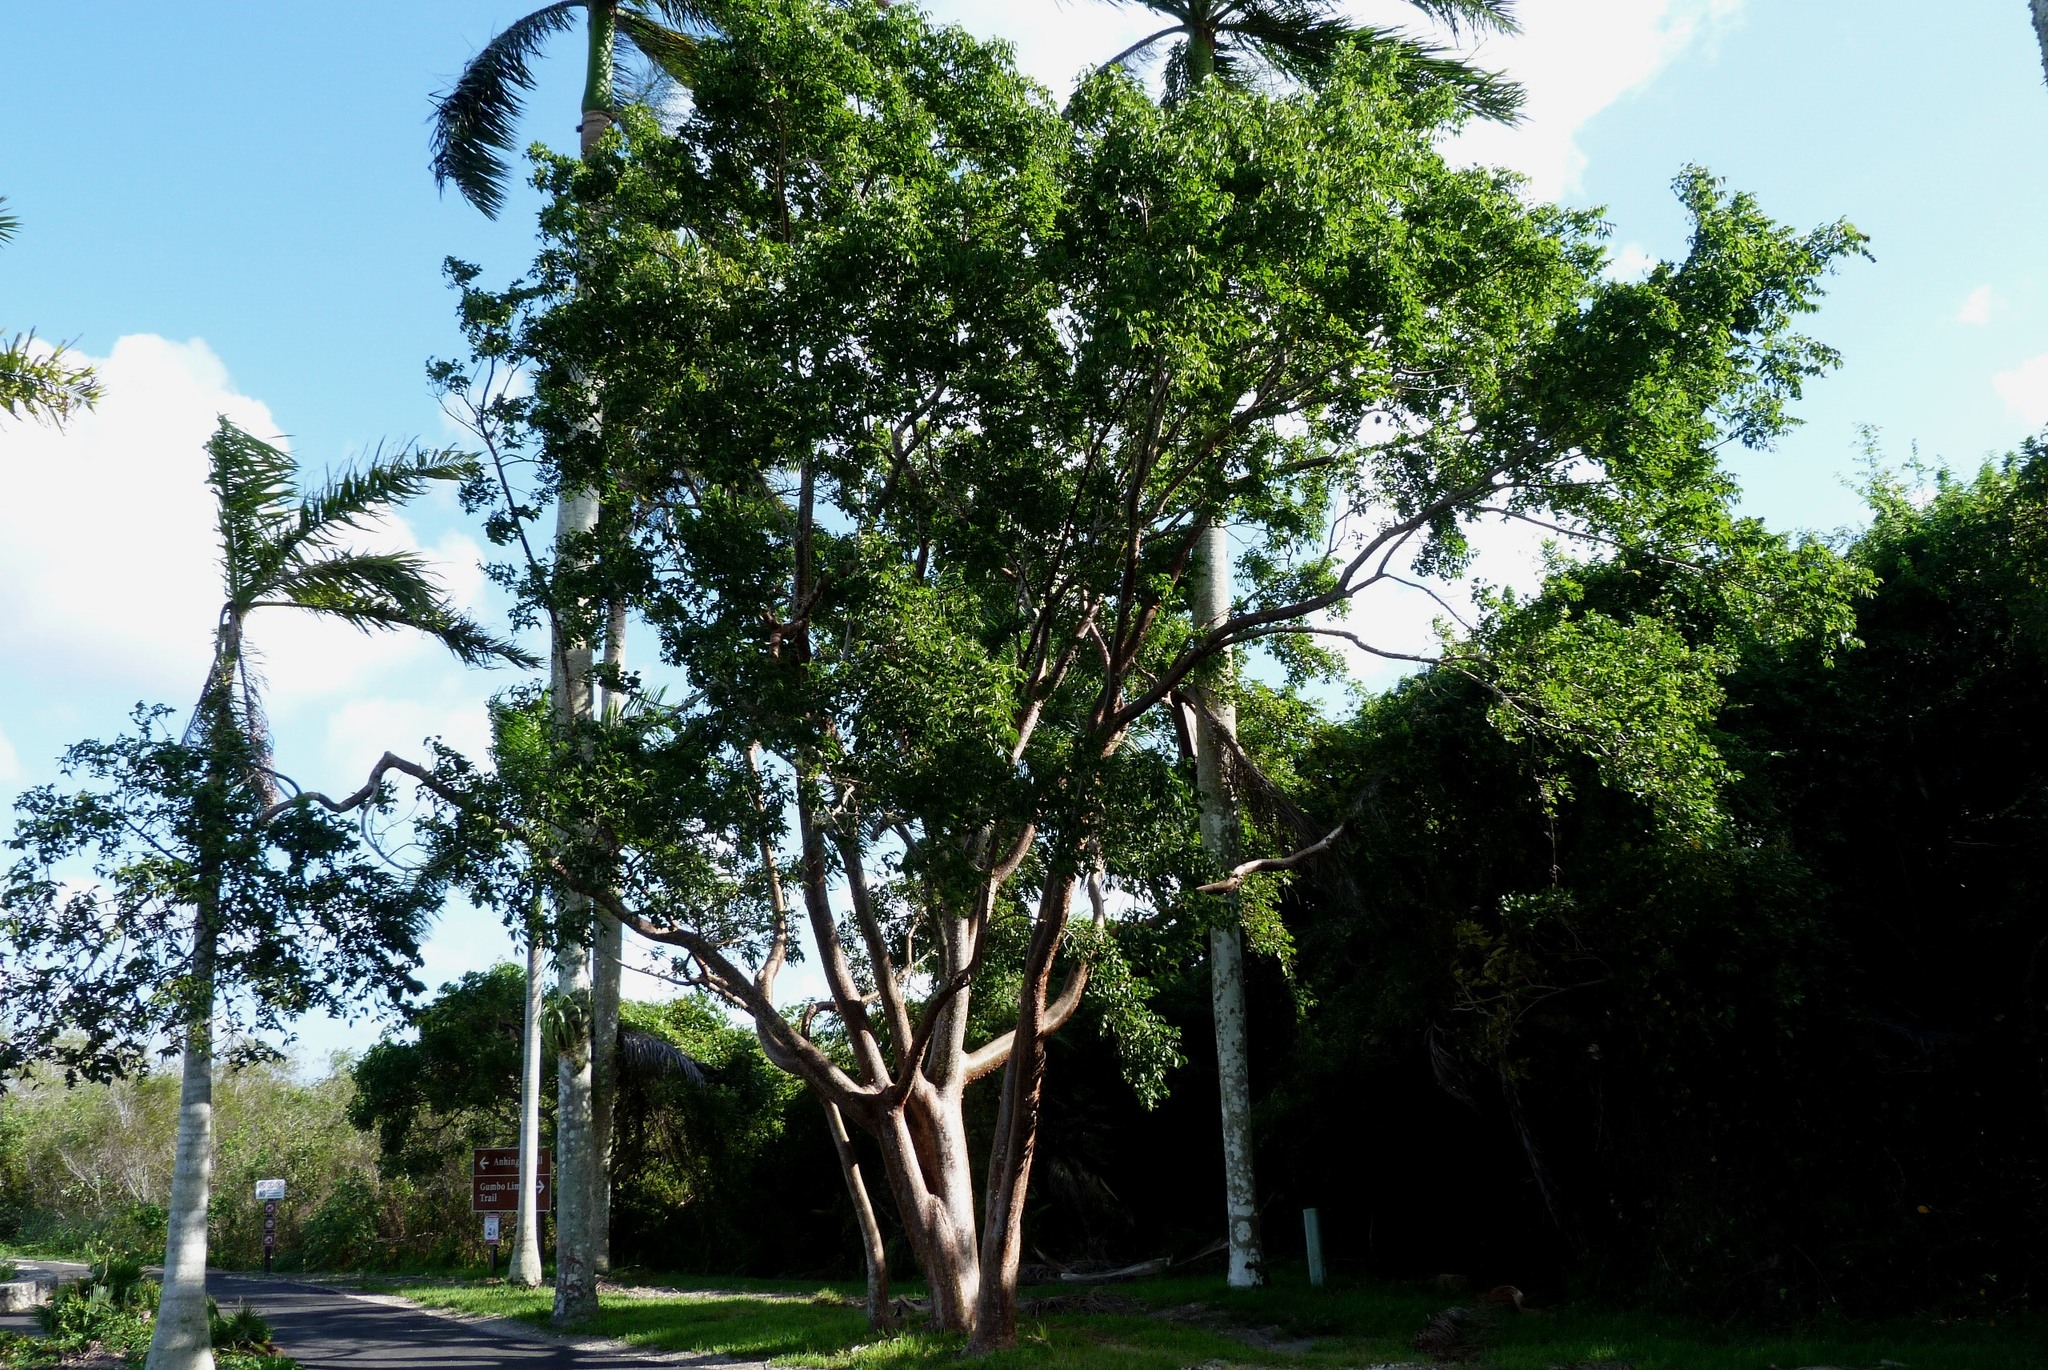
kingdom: Plantae
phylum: Tracheophyta
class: Magnoliopsida
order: Sapindales
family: Burseraceae
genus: Bursera
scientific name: Bursera simaruba
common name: Turpentine tree
